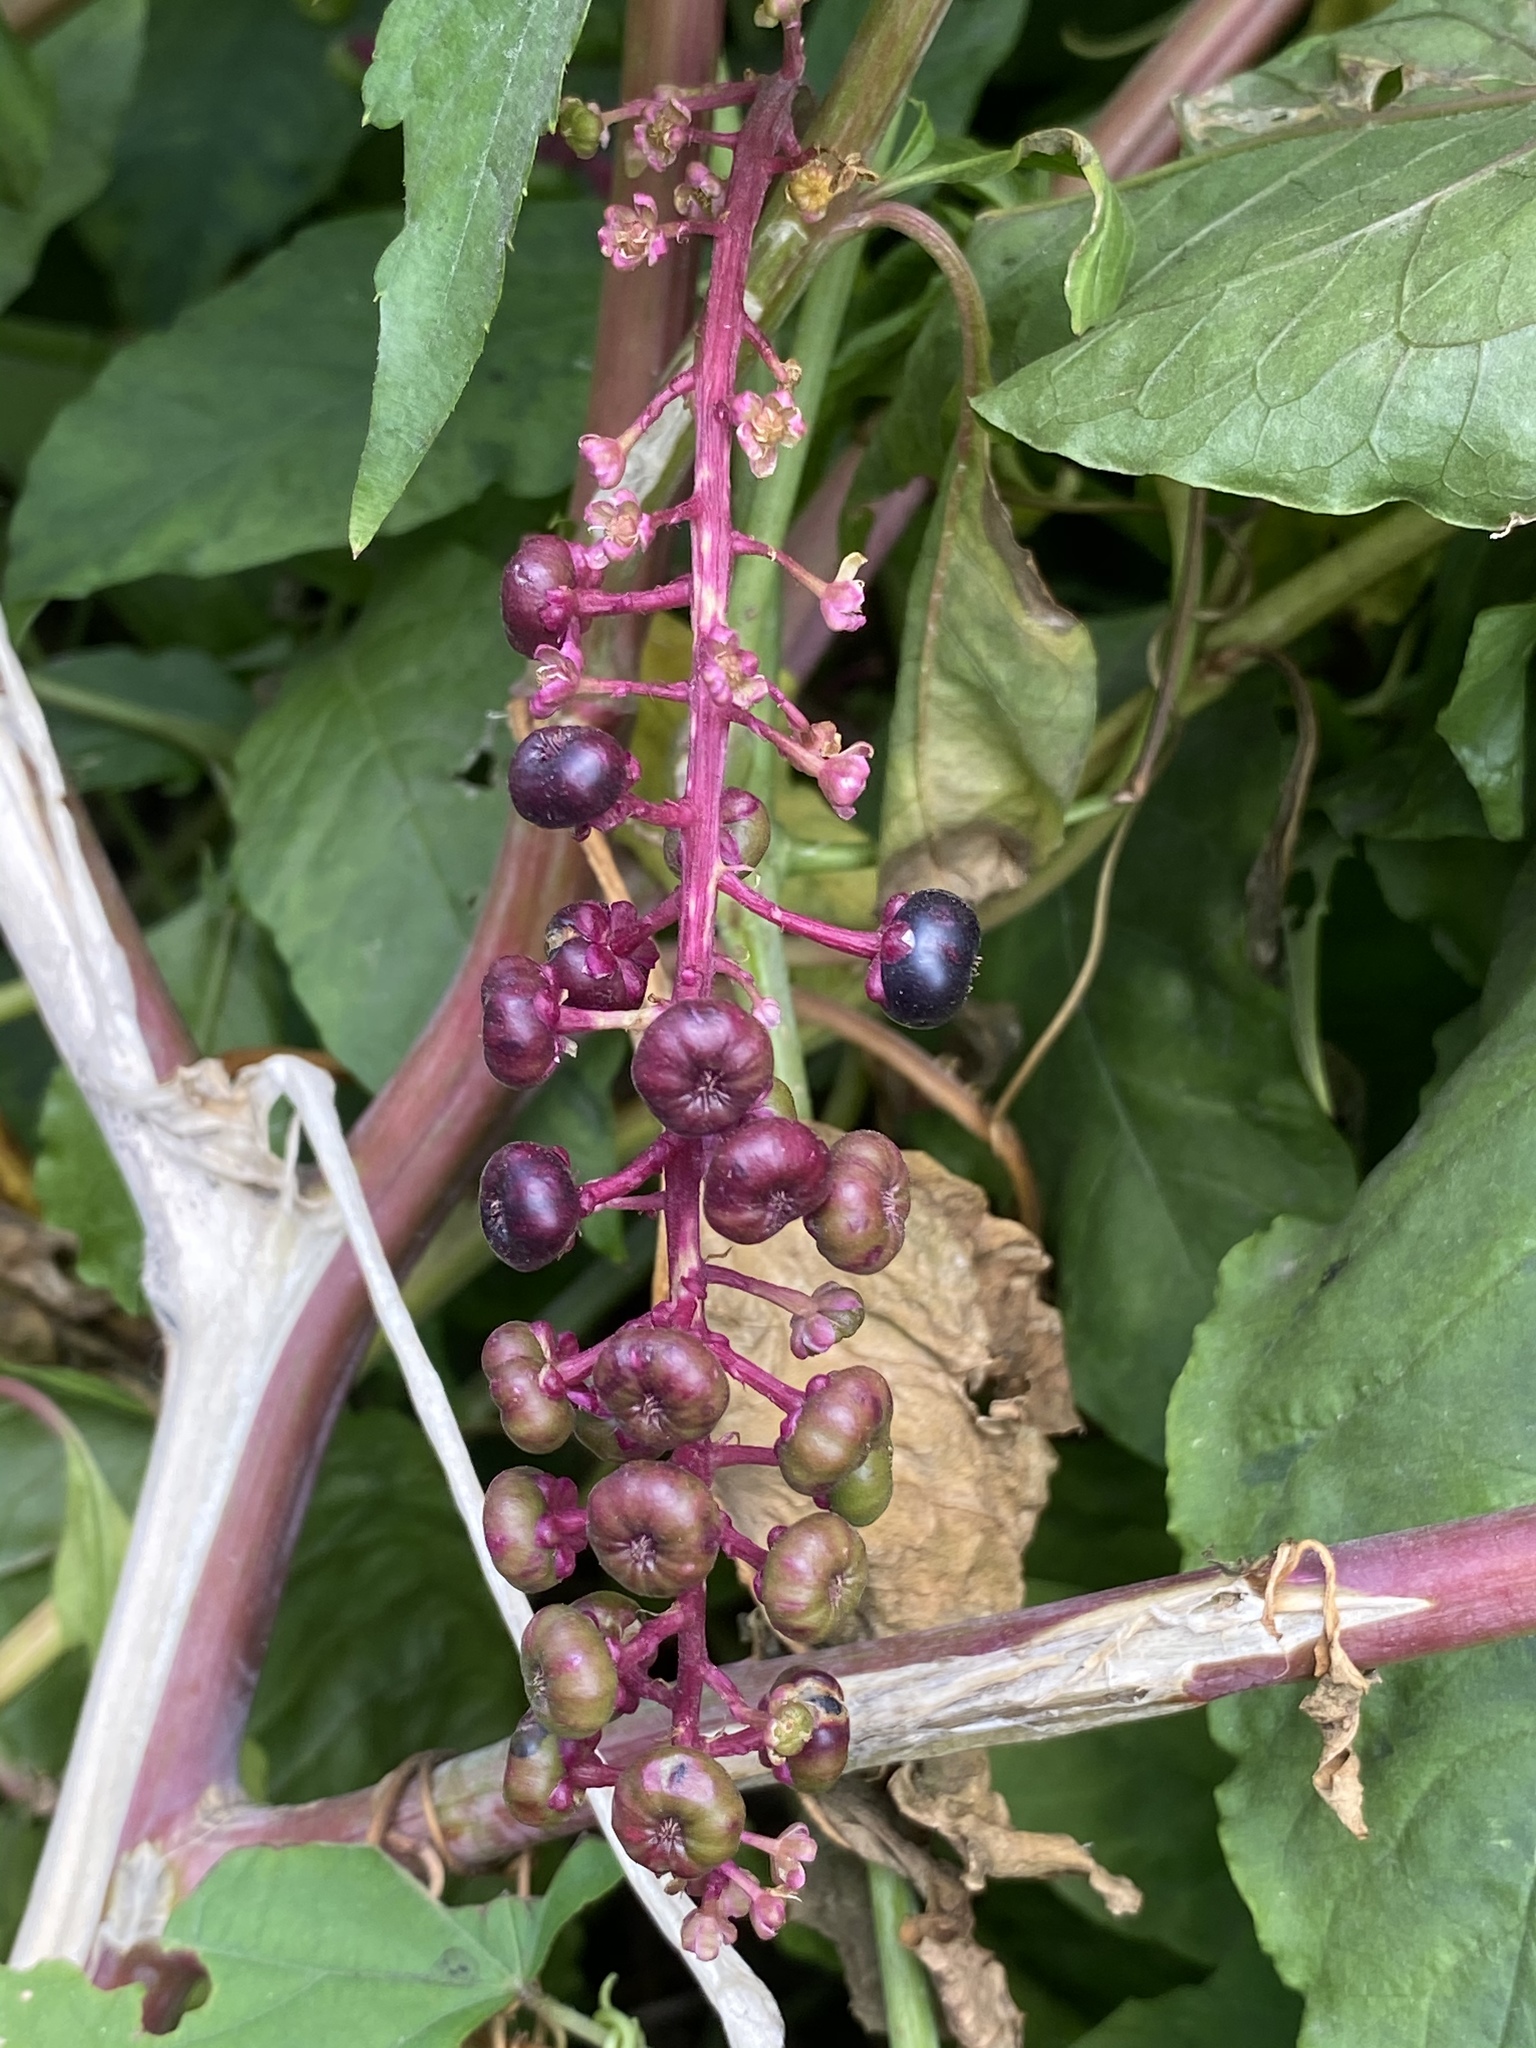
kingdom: Plantae
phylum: Tracheophyta
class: Magnoliopsida
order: Caryophyllales
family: Phytolaccaceae
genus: Phytolacca
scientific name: Phytolacca americana
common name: American pokeweed
